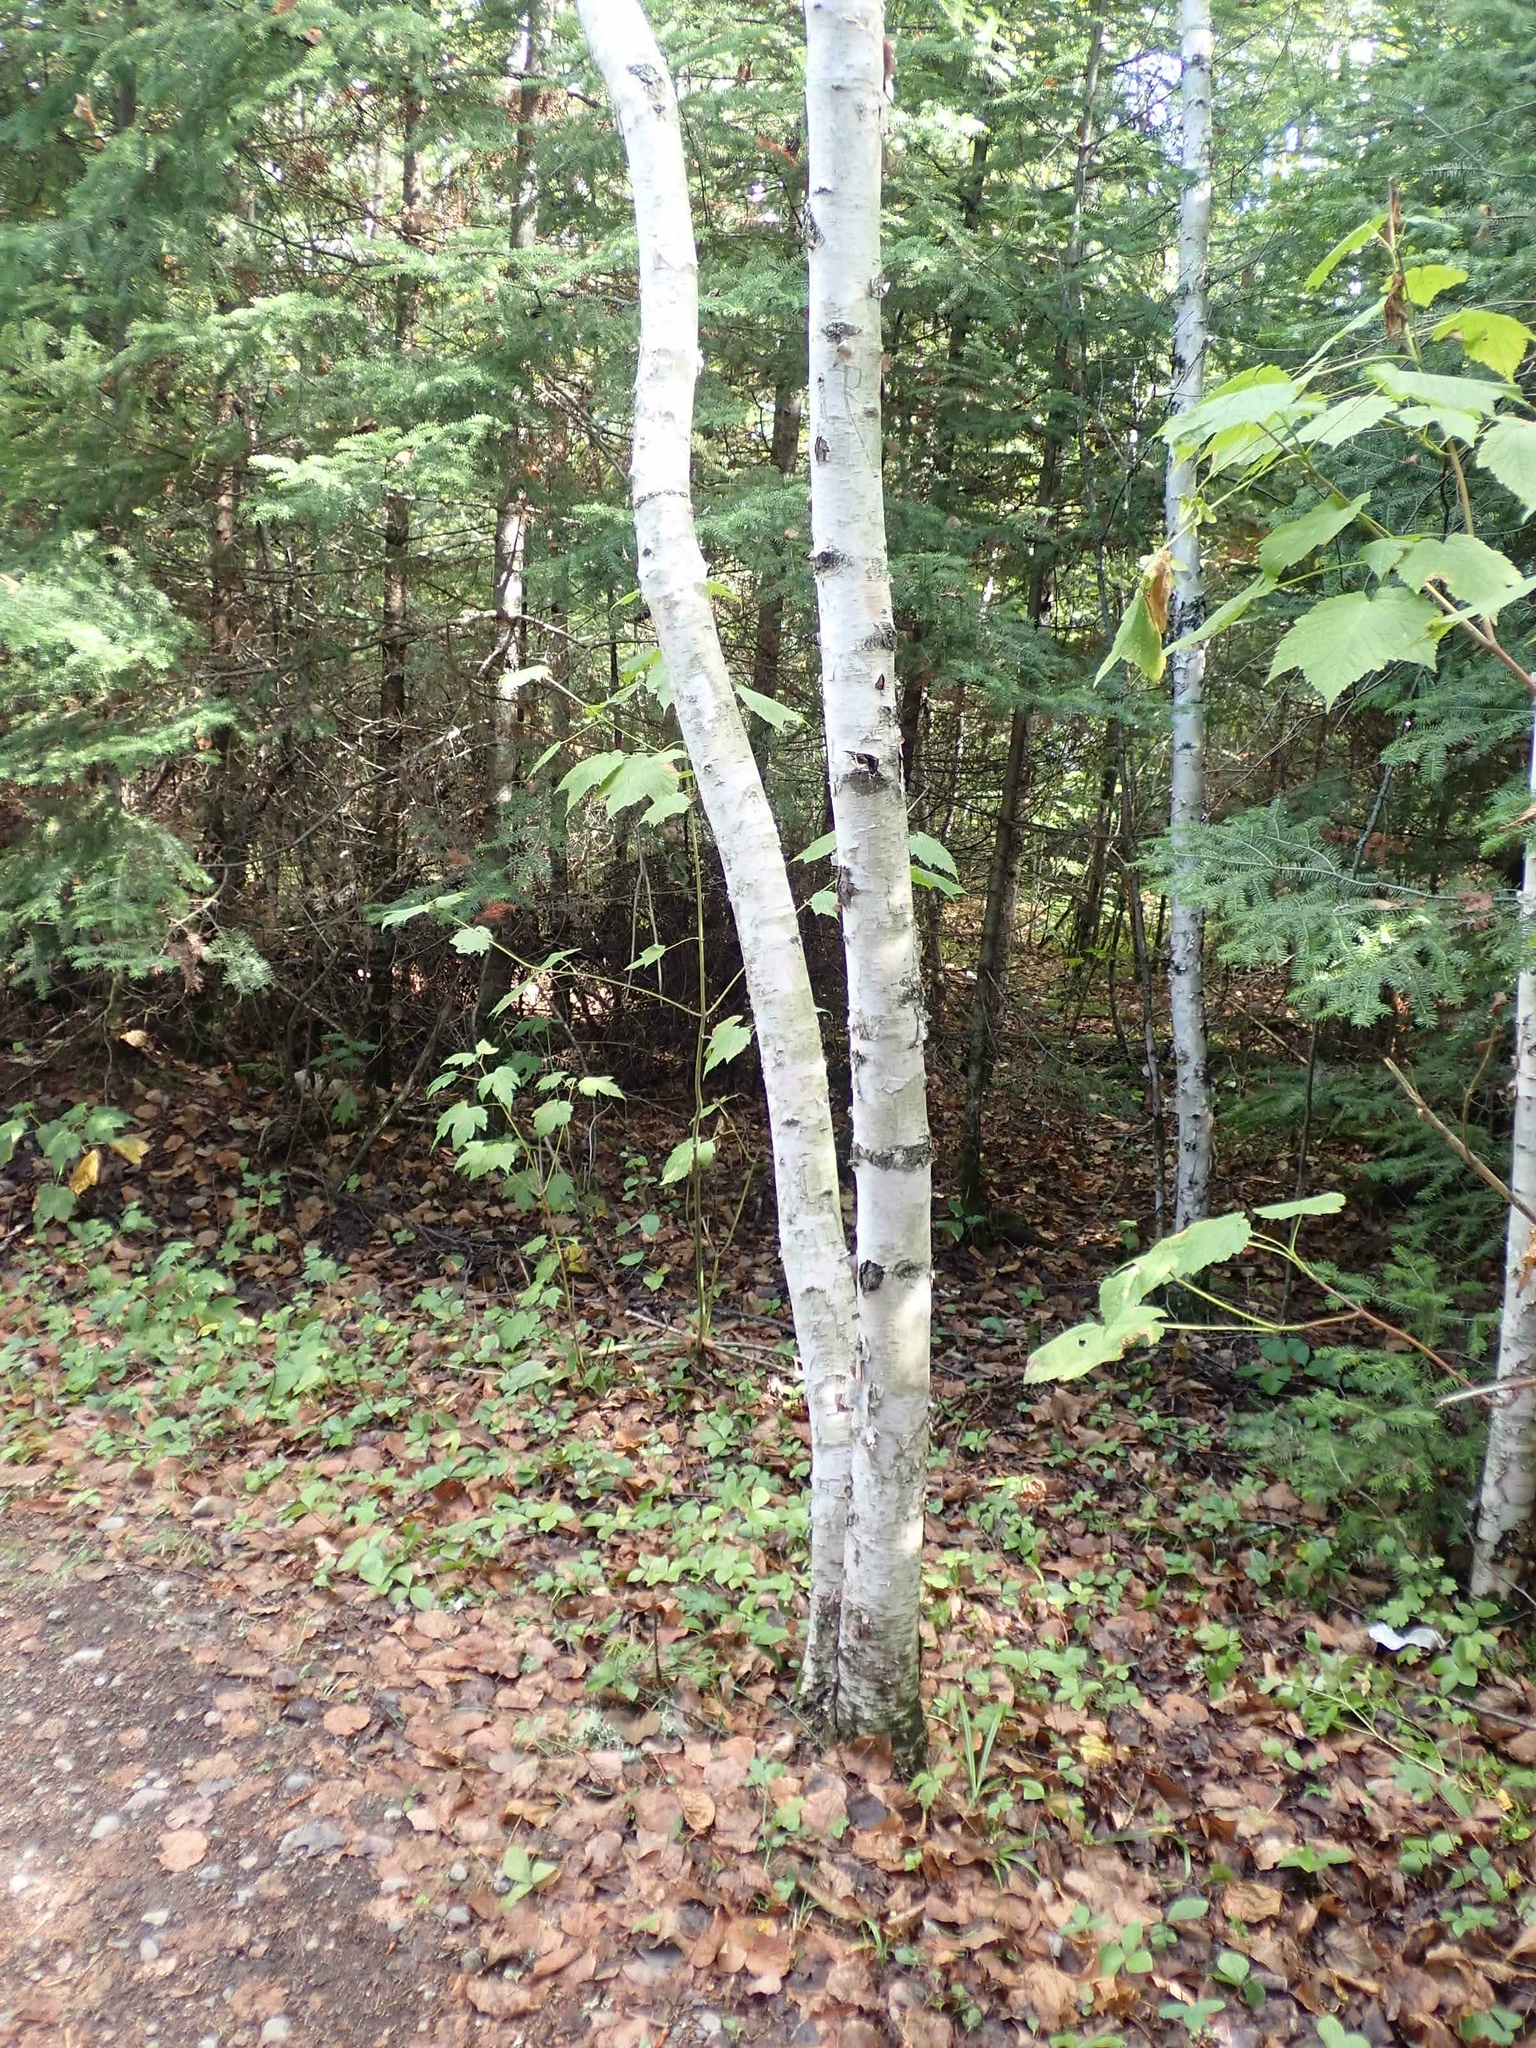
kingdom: Plantae
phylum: Tracheophyta
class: Magnoliopsida
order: Fagales
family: Betulaceae
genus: Betula
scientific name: Betula papyrifera
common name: Paper birch
